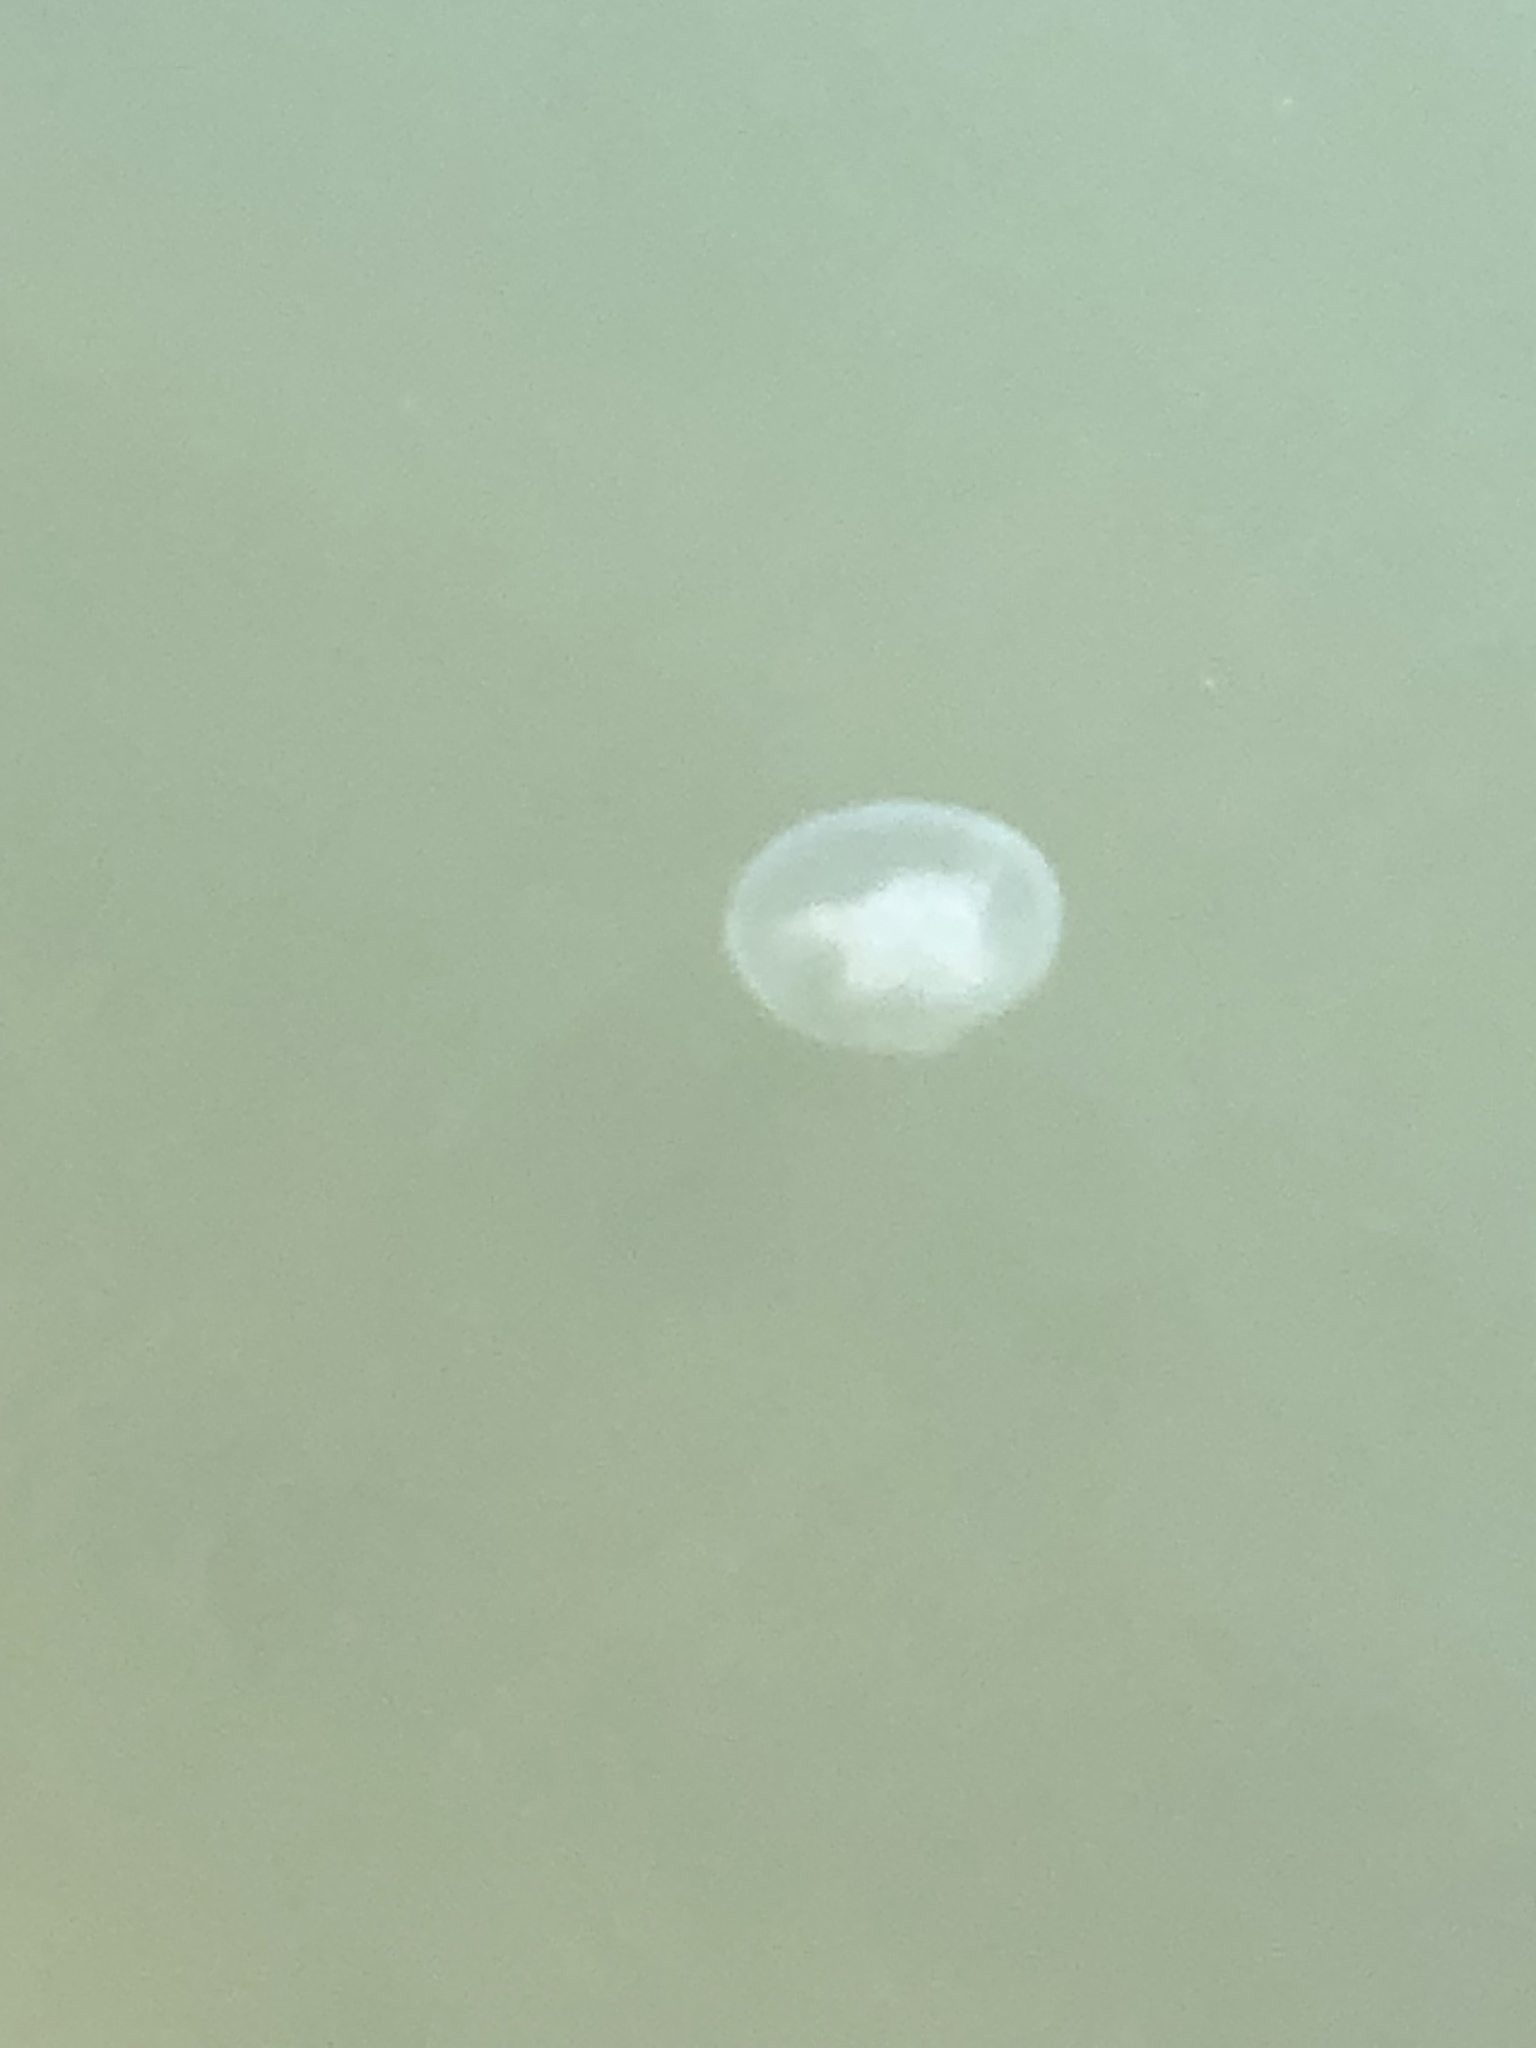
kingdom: Animalia
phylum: Cnidaria
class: Scyphozoa
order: Semaeostomeae
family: Ulmaridae
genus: Aurelia
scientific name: Aurelia coerulea
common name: Moon jellyfish
